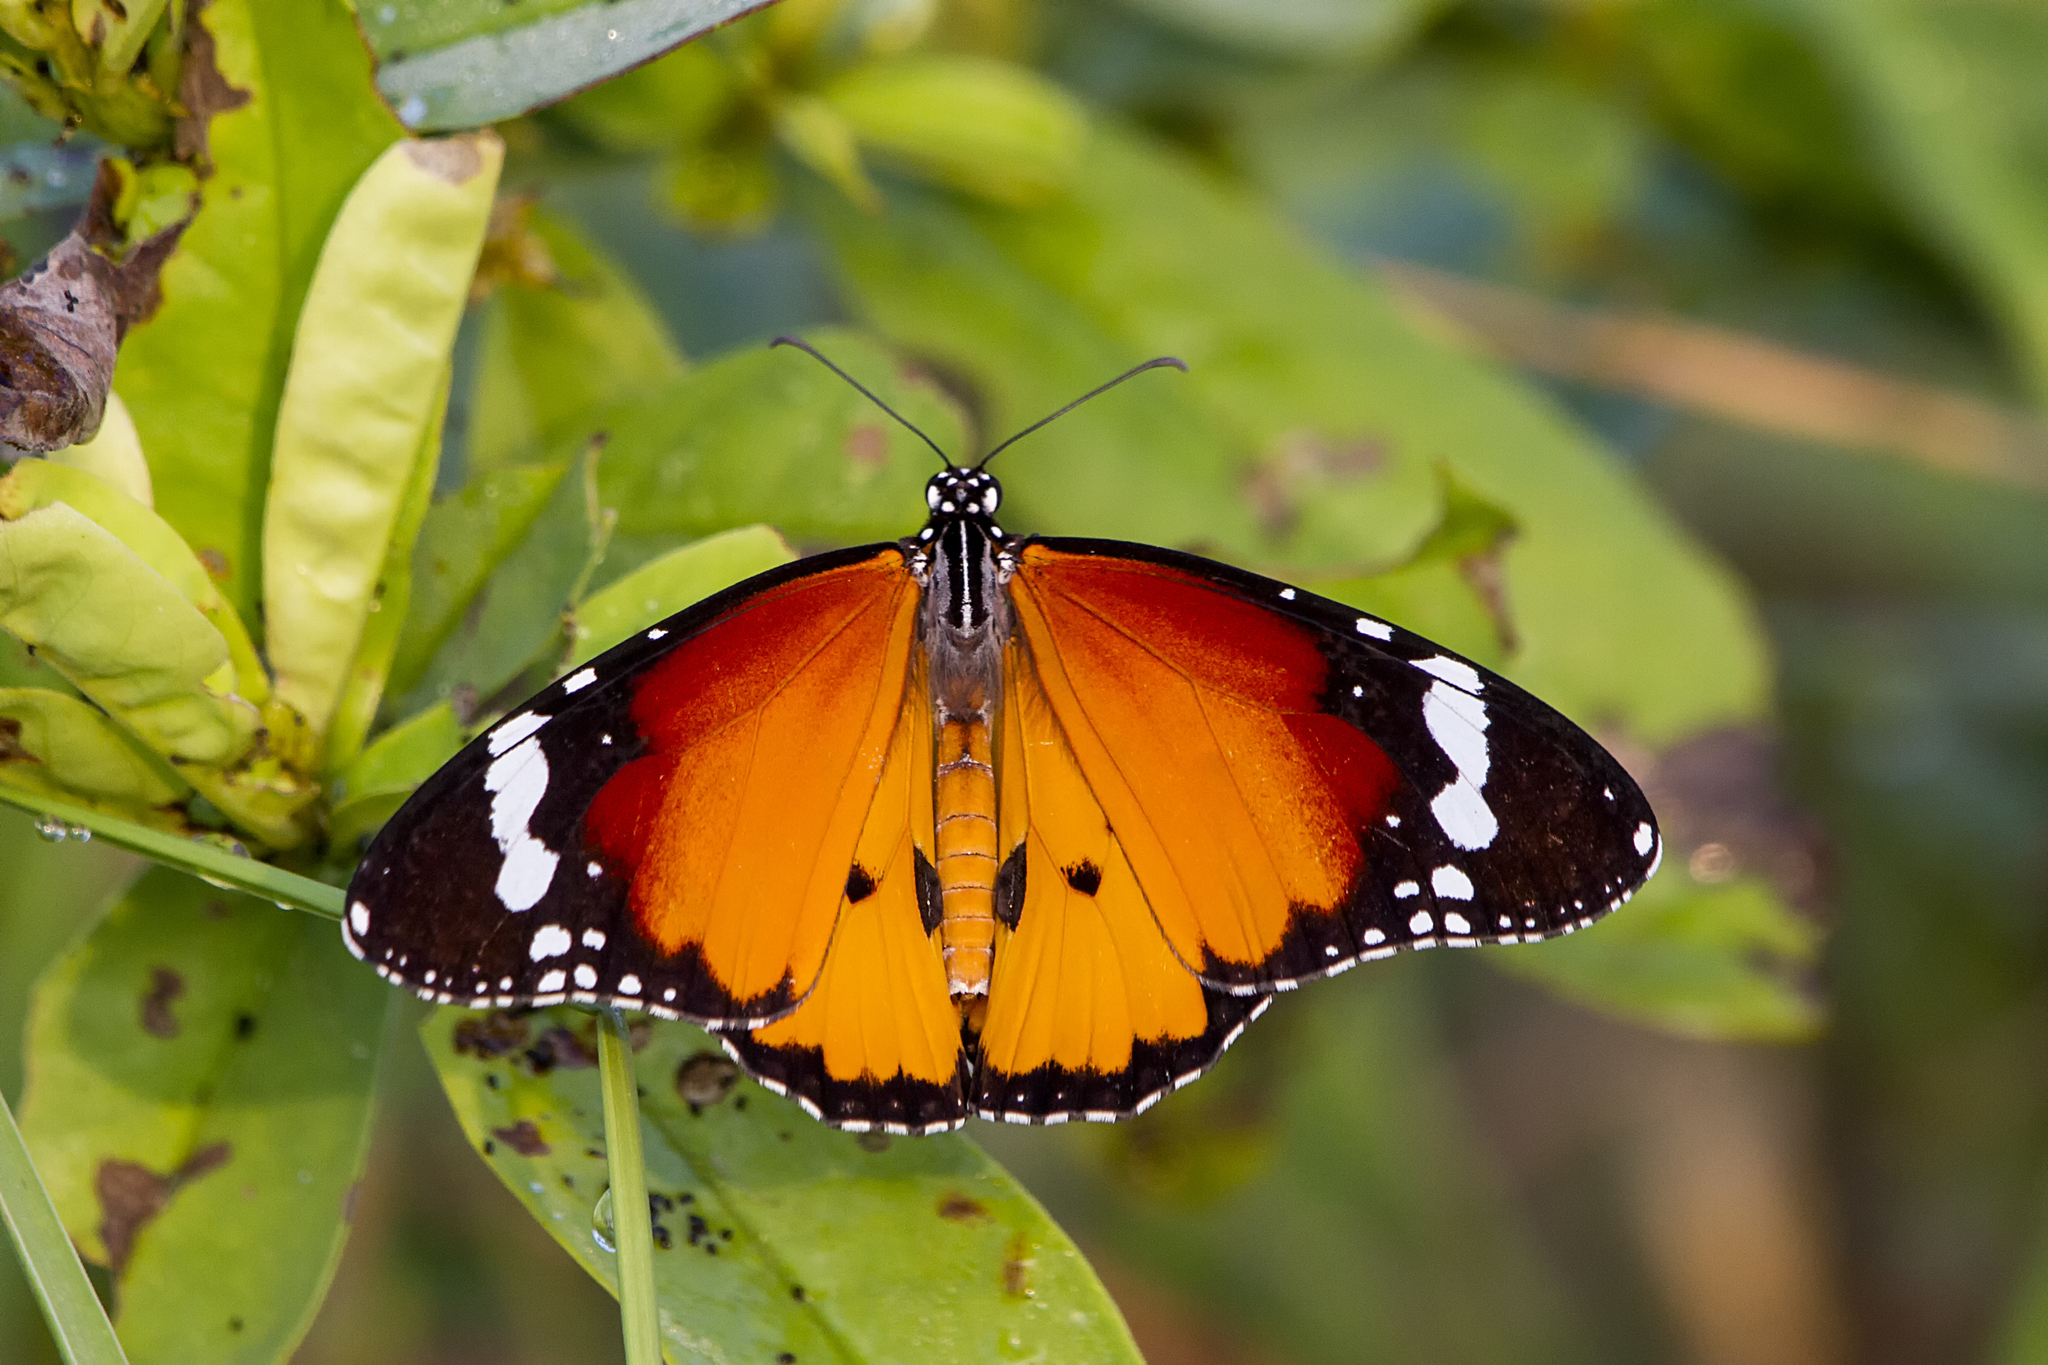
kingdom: Animalia
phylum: Arthropoda
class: Insecta
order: Lepidoptera
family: Nymphalidae
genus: Danaus
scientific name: Danaus chrysippus
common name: Plain tiger
